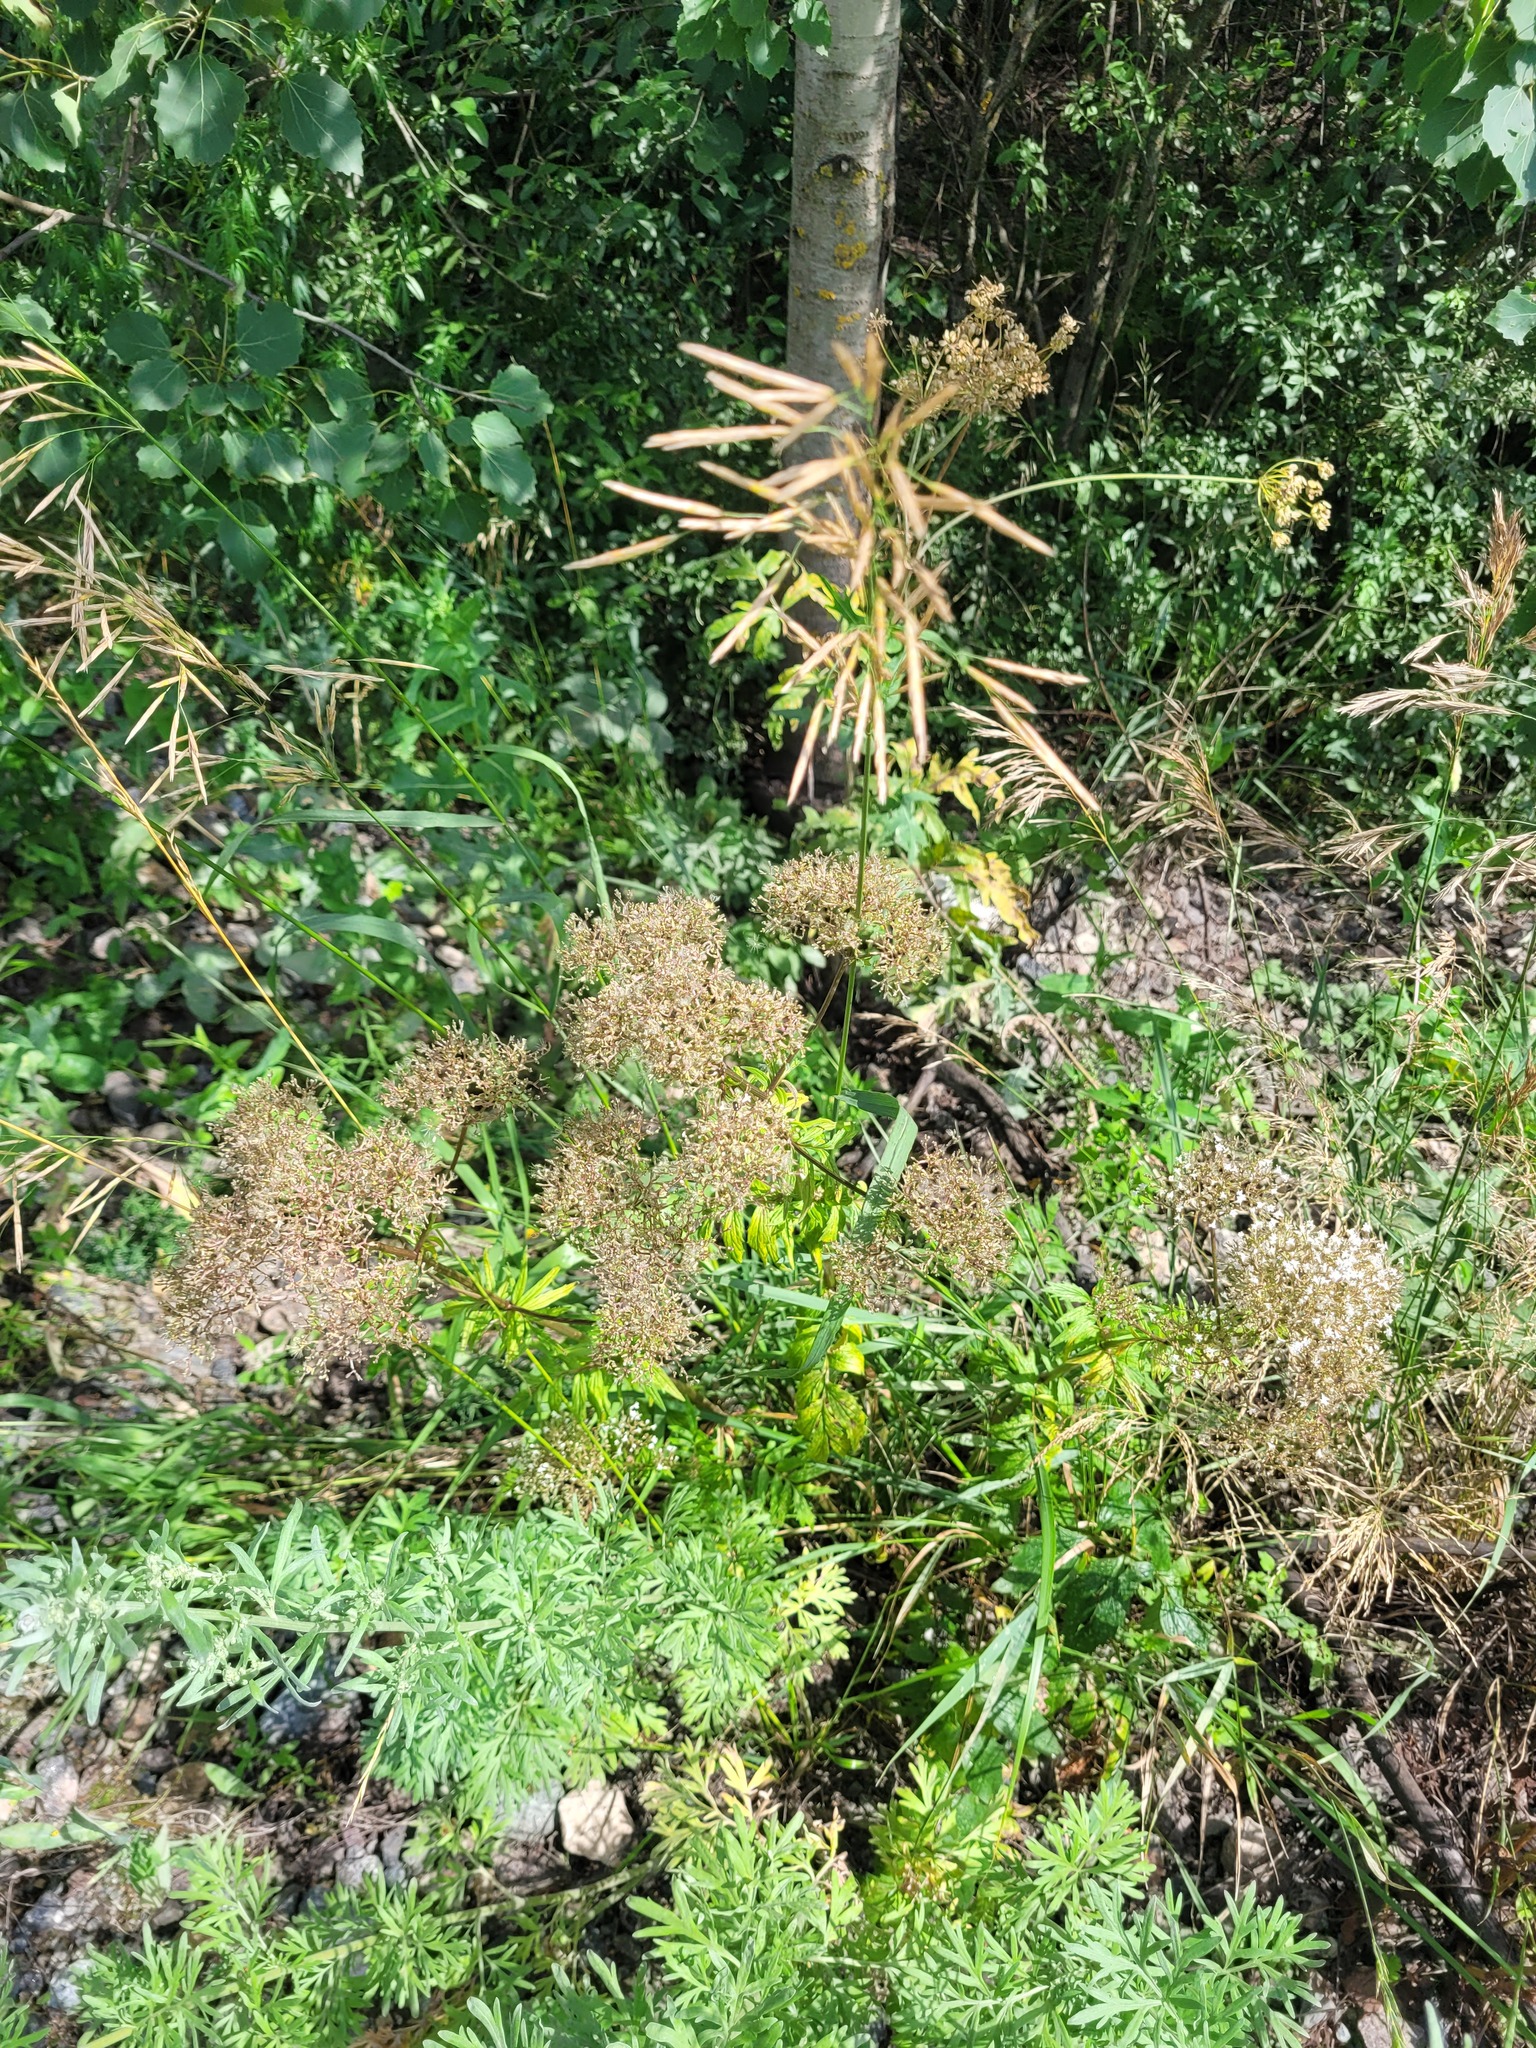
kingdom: Plantae
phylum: Tracheophyta
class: Magnoliopsida
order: Dipsacales
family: Caprifoliaceae
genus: Valeriana
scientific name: Valeriana officinalis
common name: Common valerian
